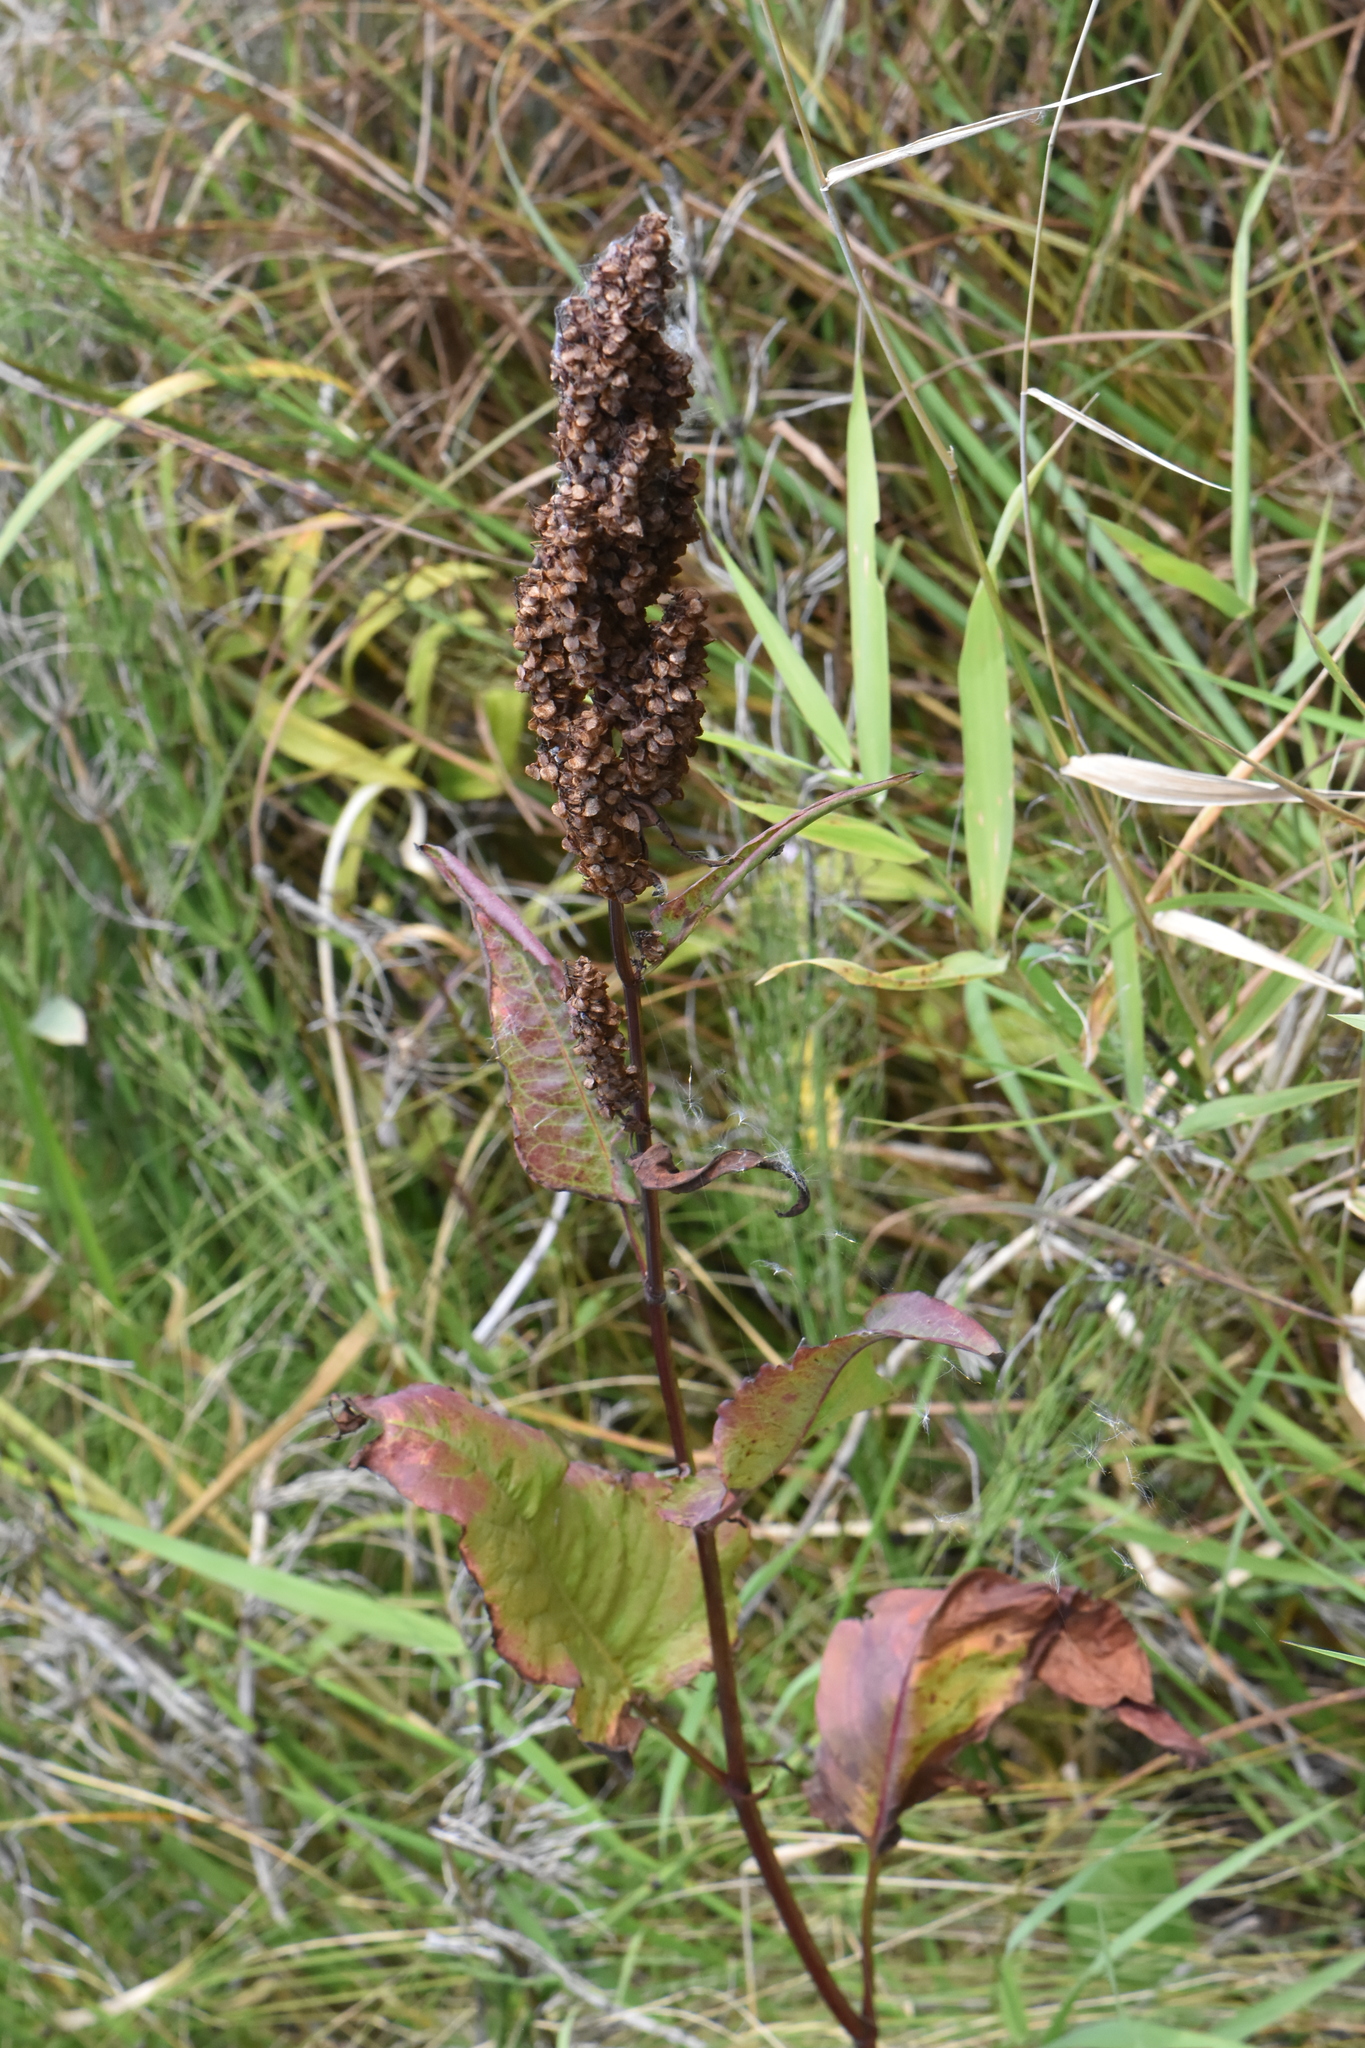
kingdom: Plantae
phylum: Tracheophyta
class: Magnoliopsida
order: Caryophyllales
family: Polygonaceae
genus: Rumex
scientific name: Rumex aquaticus
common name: Scottish dock
